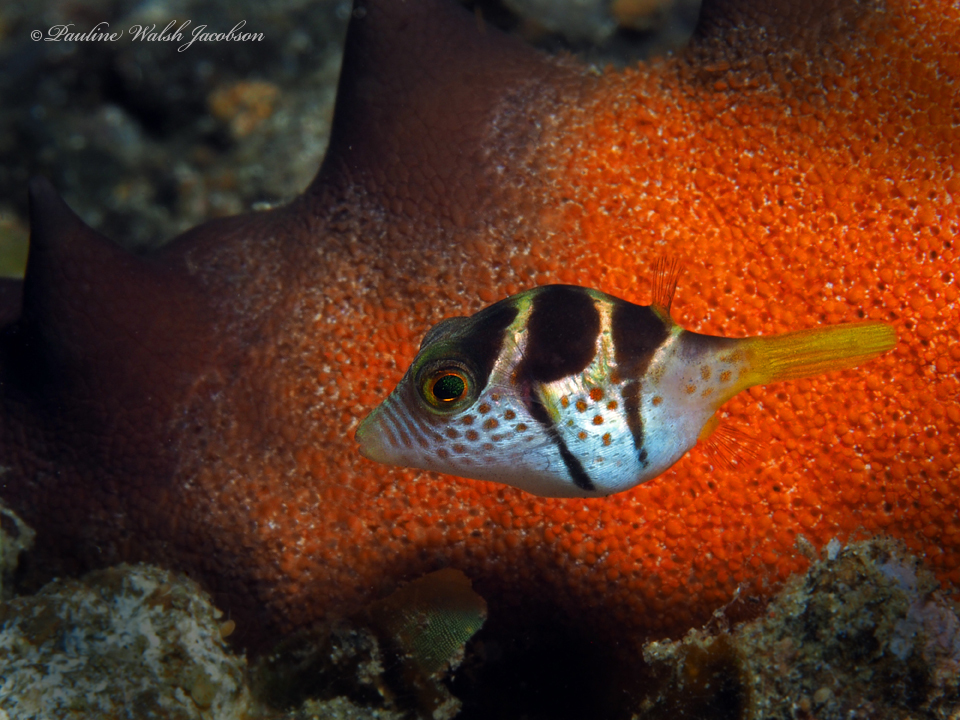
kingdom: Animalia
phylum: Chordata
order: Tetraodontiformes
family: Tetraodontidae
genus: Canthigaster
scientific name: Canthigaster valentini
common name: Banded toby
